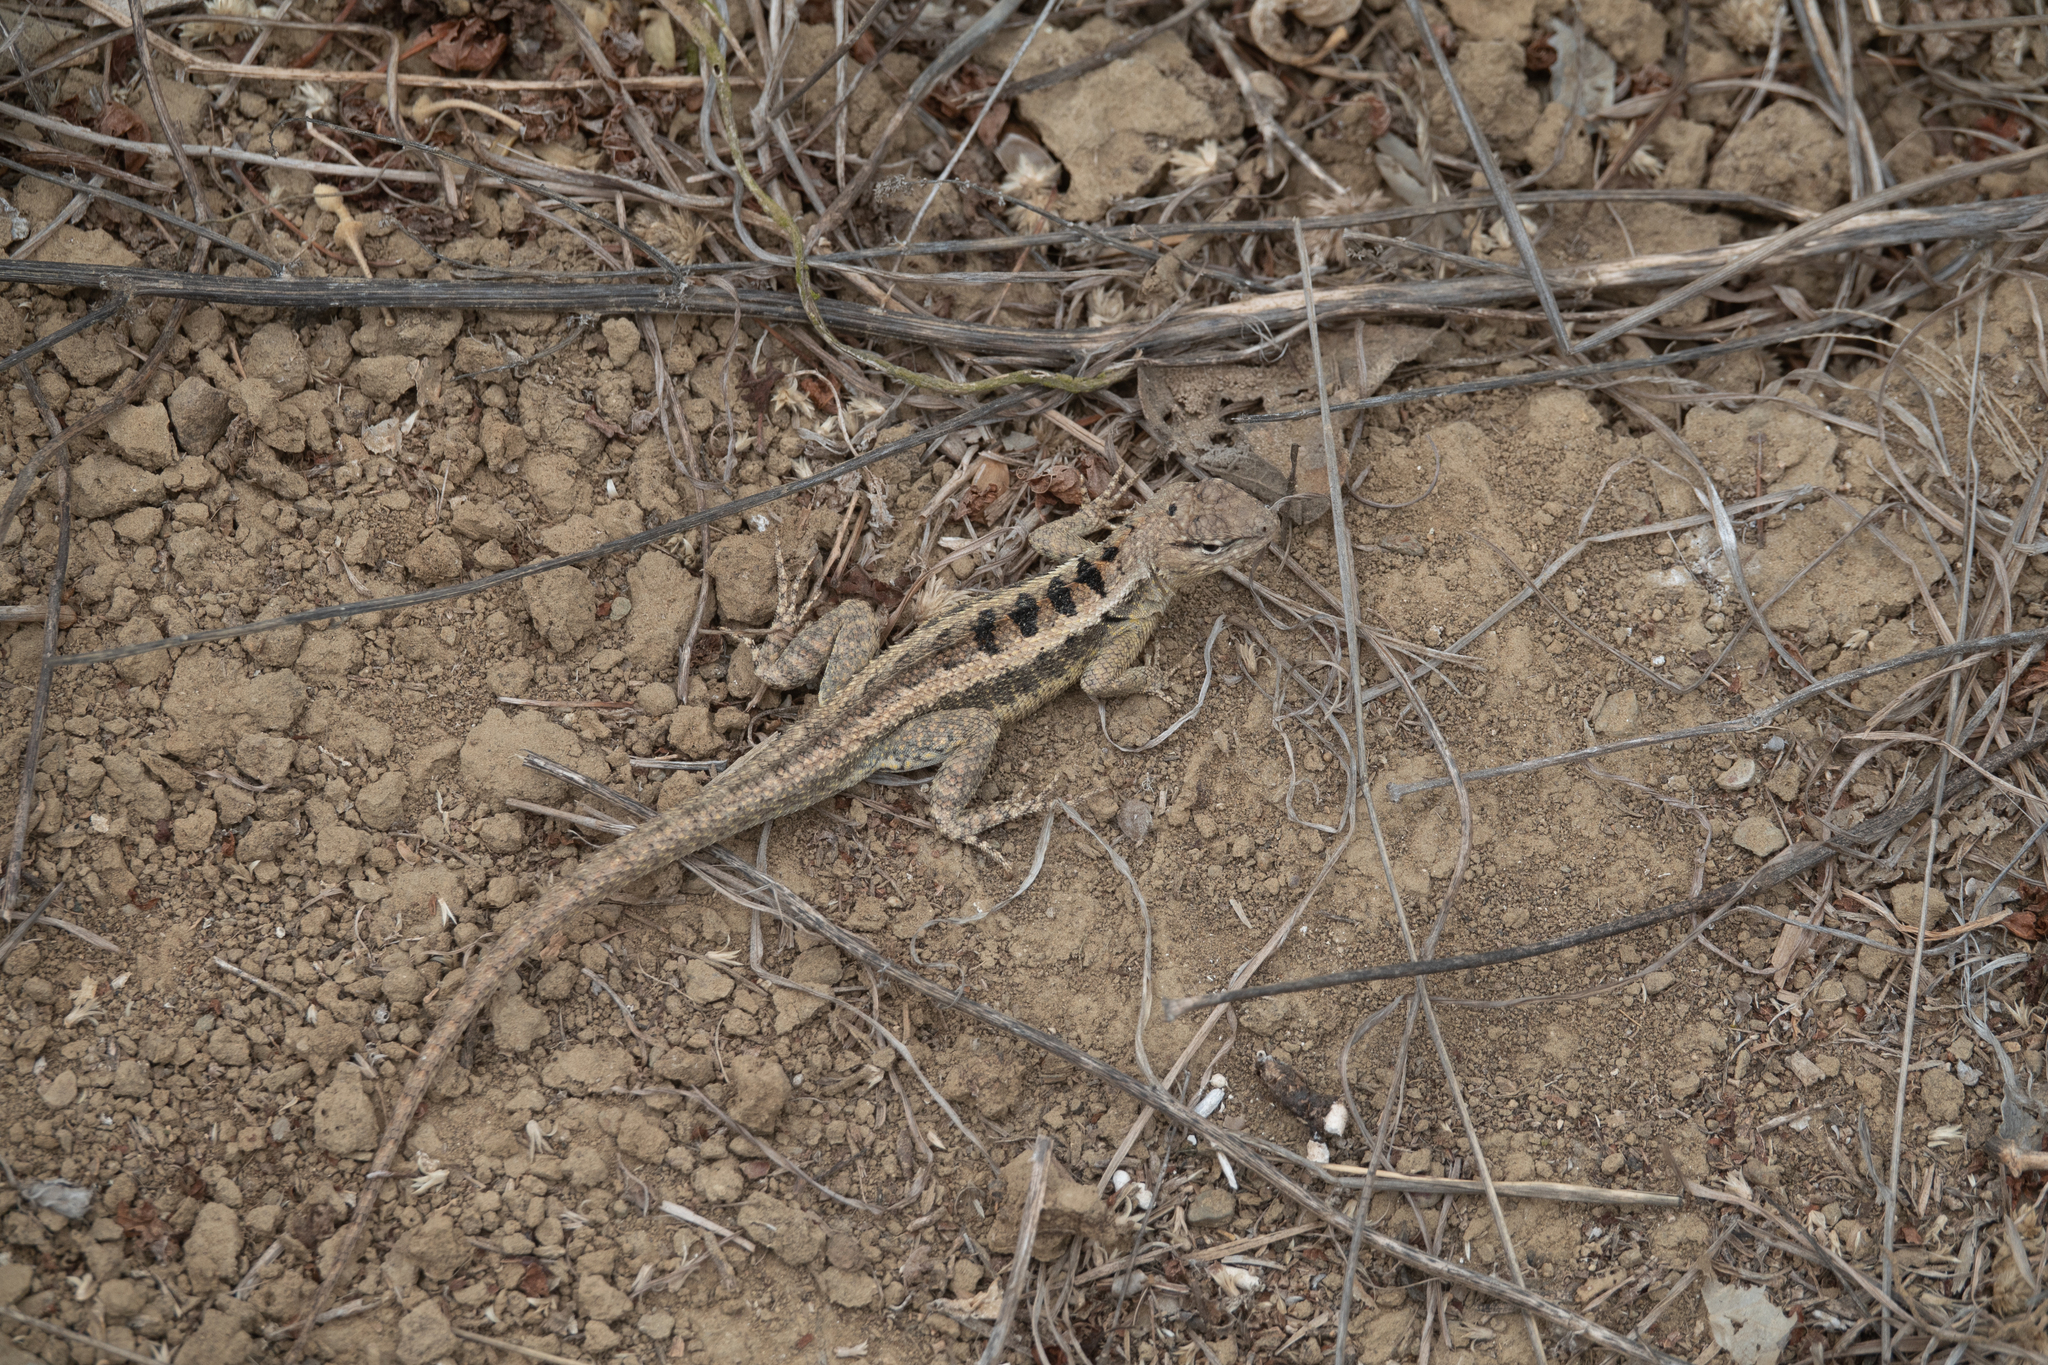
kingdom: Animalia
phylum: Chordata
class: Squamata
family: Tropiduridae
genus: Microlophus
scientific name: Microlophus occipitalis
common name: Knobbed pacific iguana
